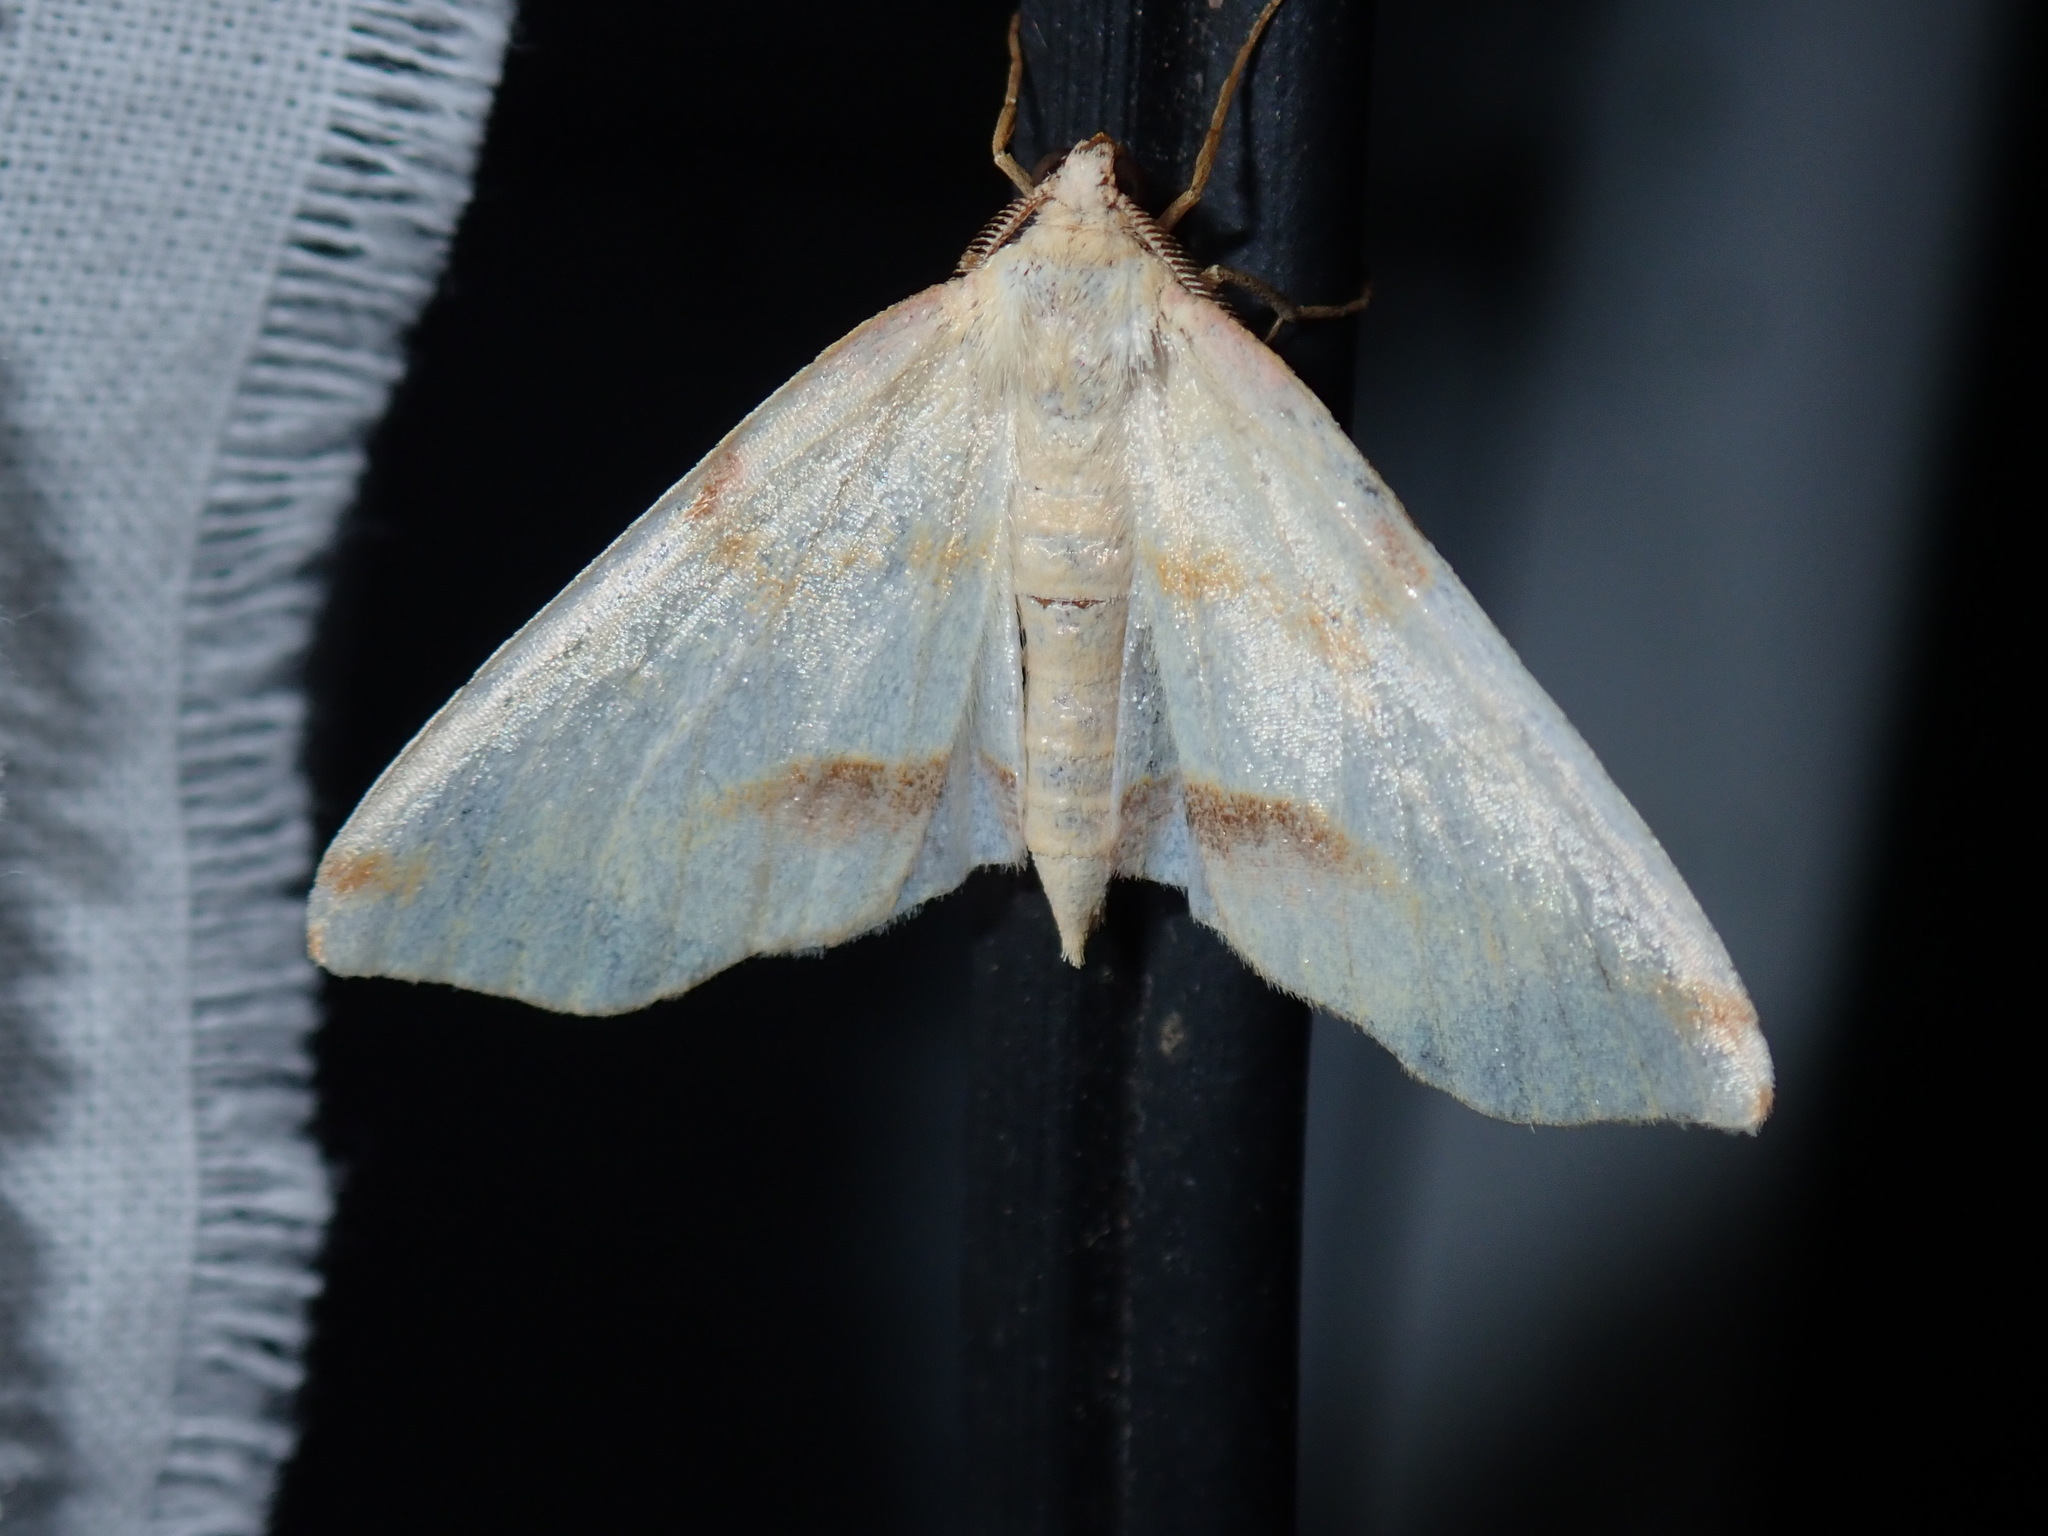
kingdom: Animalia
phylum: Arthropoda
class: Insecta
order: Lepidoptera
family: Geometridae
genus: Plagodis
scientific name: Plagodis serinaria
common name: Lemon plagodis
